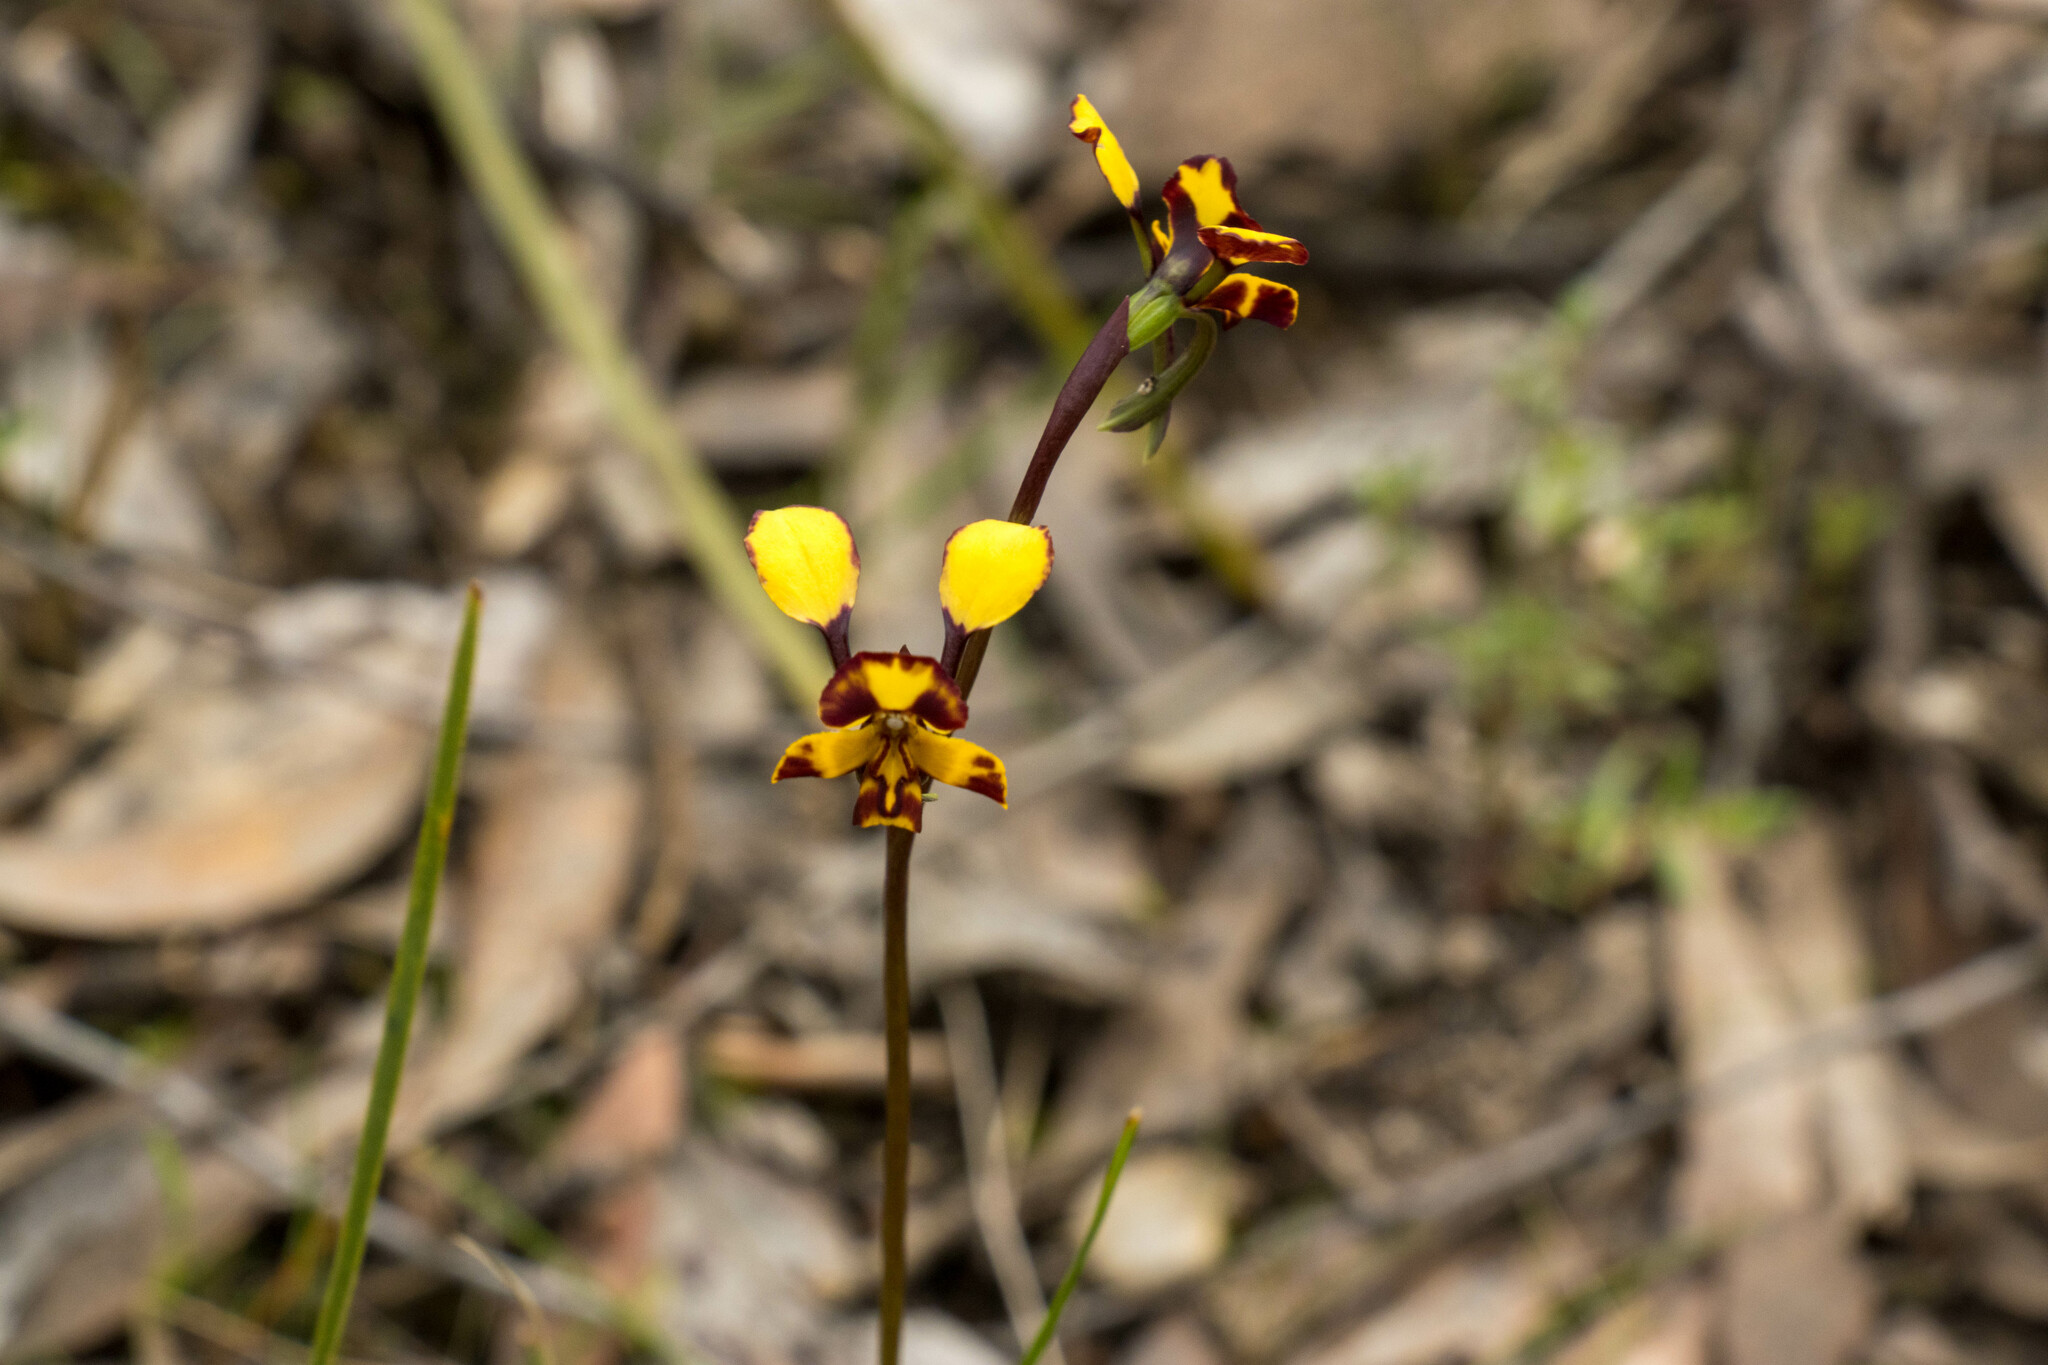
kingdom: Plantae
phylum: Tracheophyta
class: Liliopsida
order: Asparagales
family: Orchidaceae
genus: Diuris
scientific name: Diuris pardina
